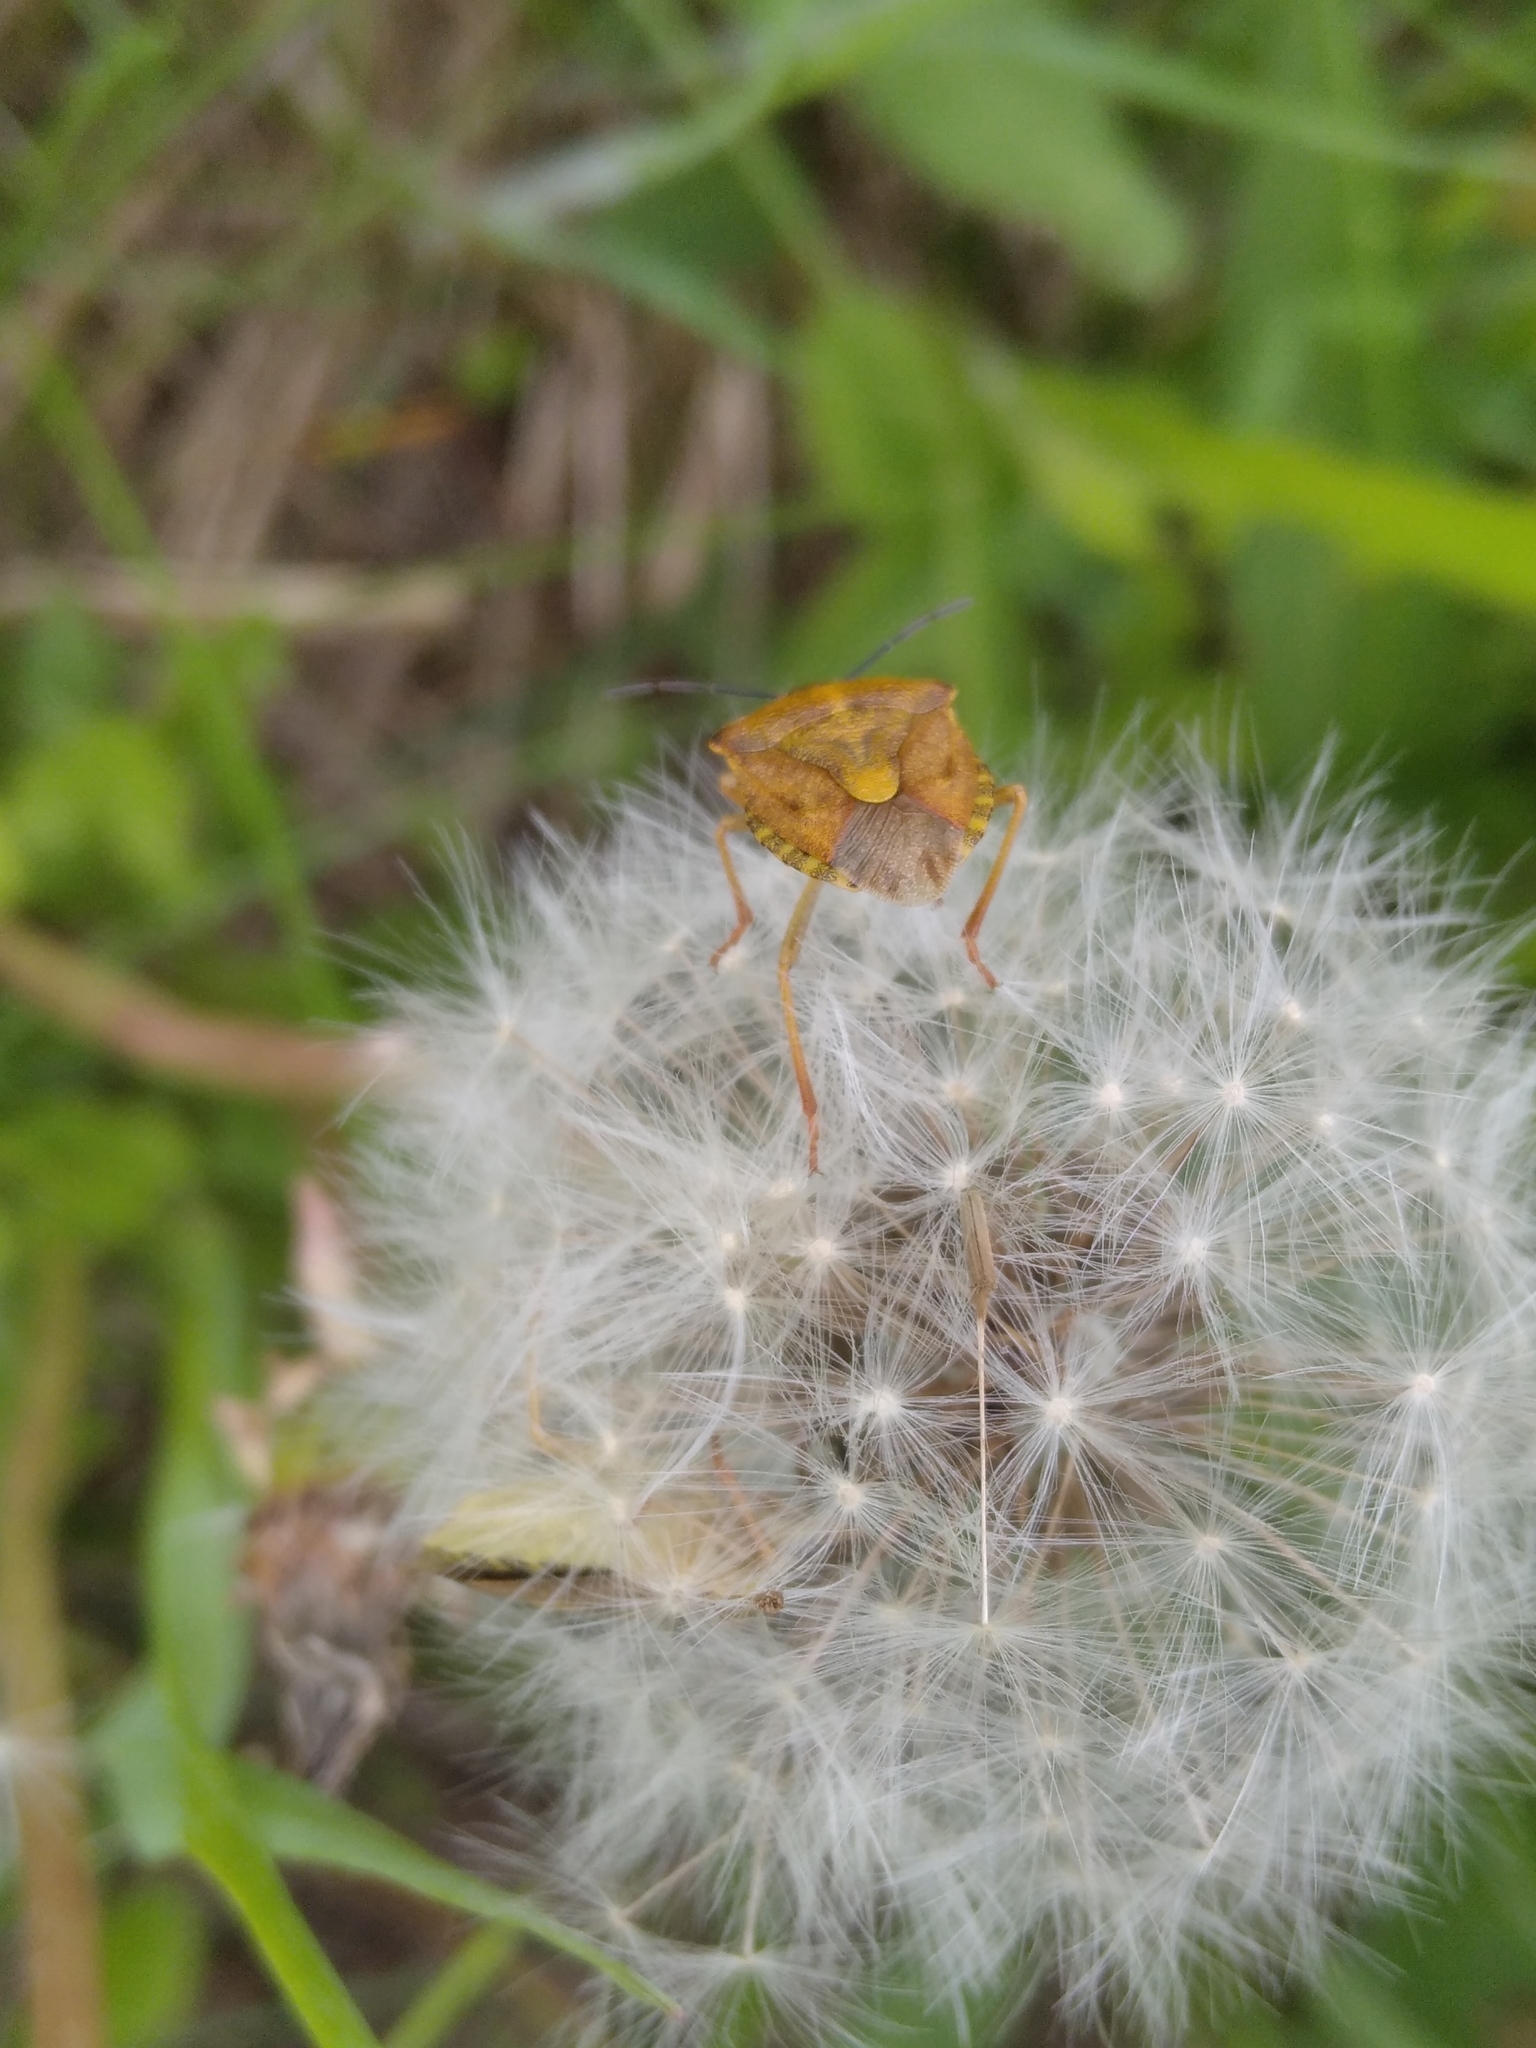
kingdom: Animalia
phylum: Arthropoda
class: Insecta
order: Hemiptera
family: Pentatomidae
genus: Carpocoris
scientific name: Carpocoris purpureipennis
